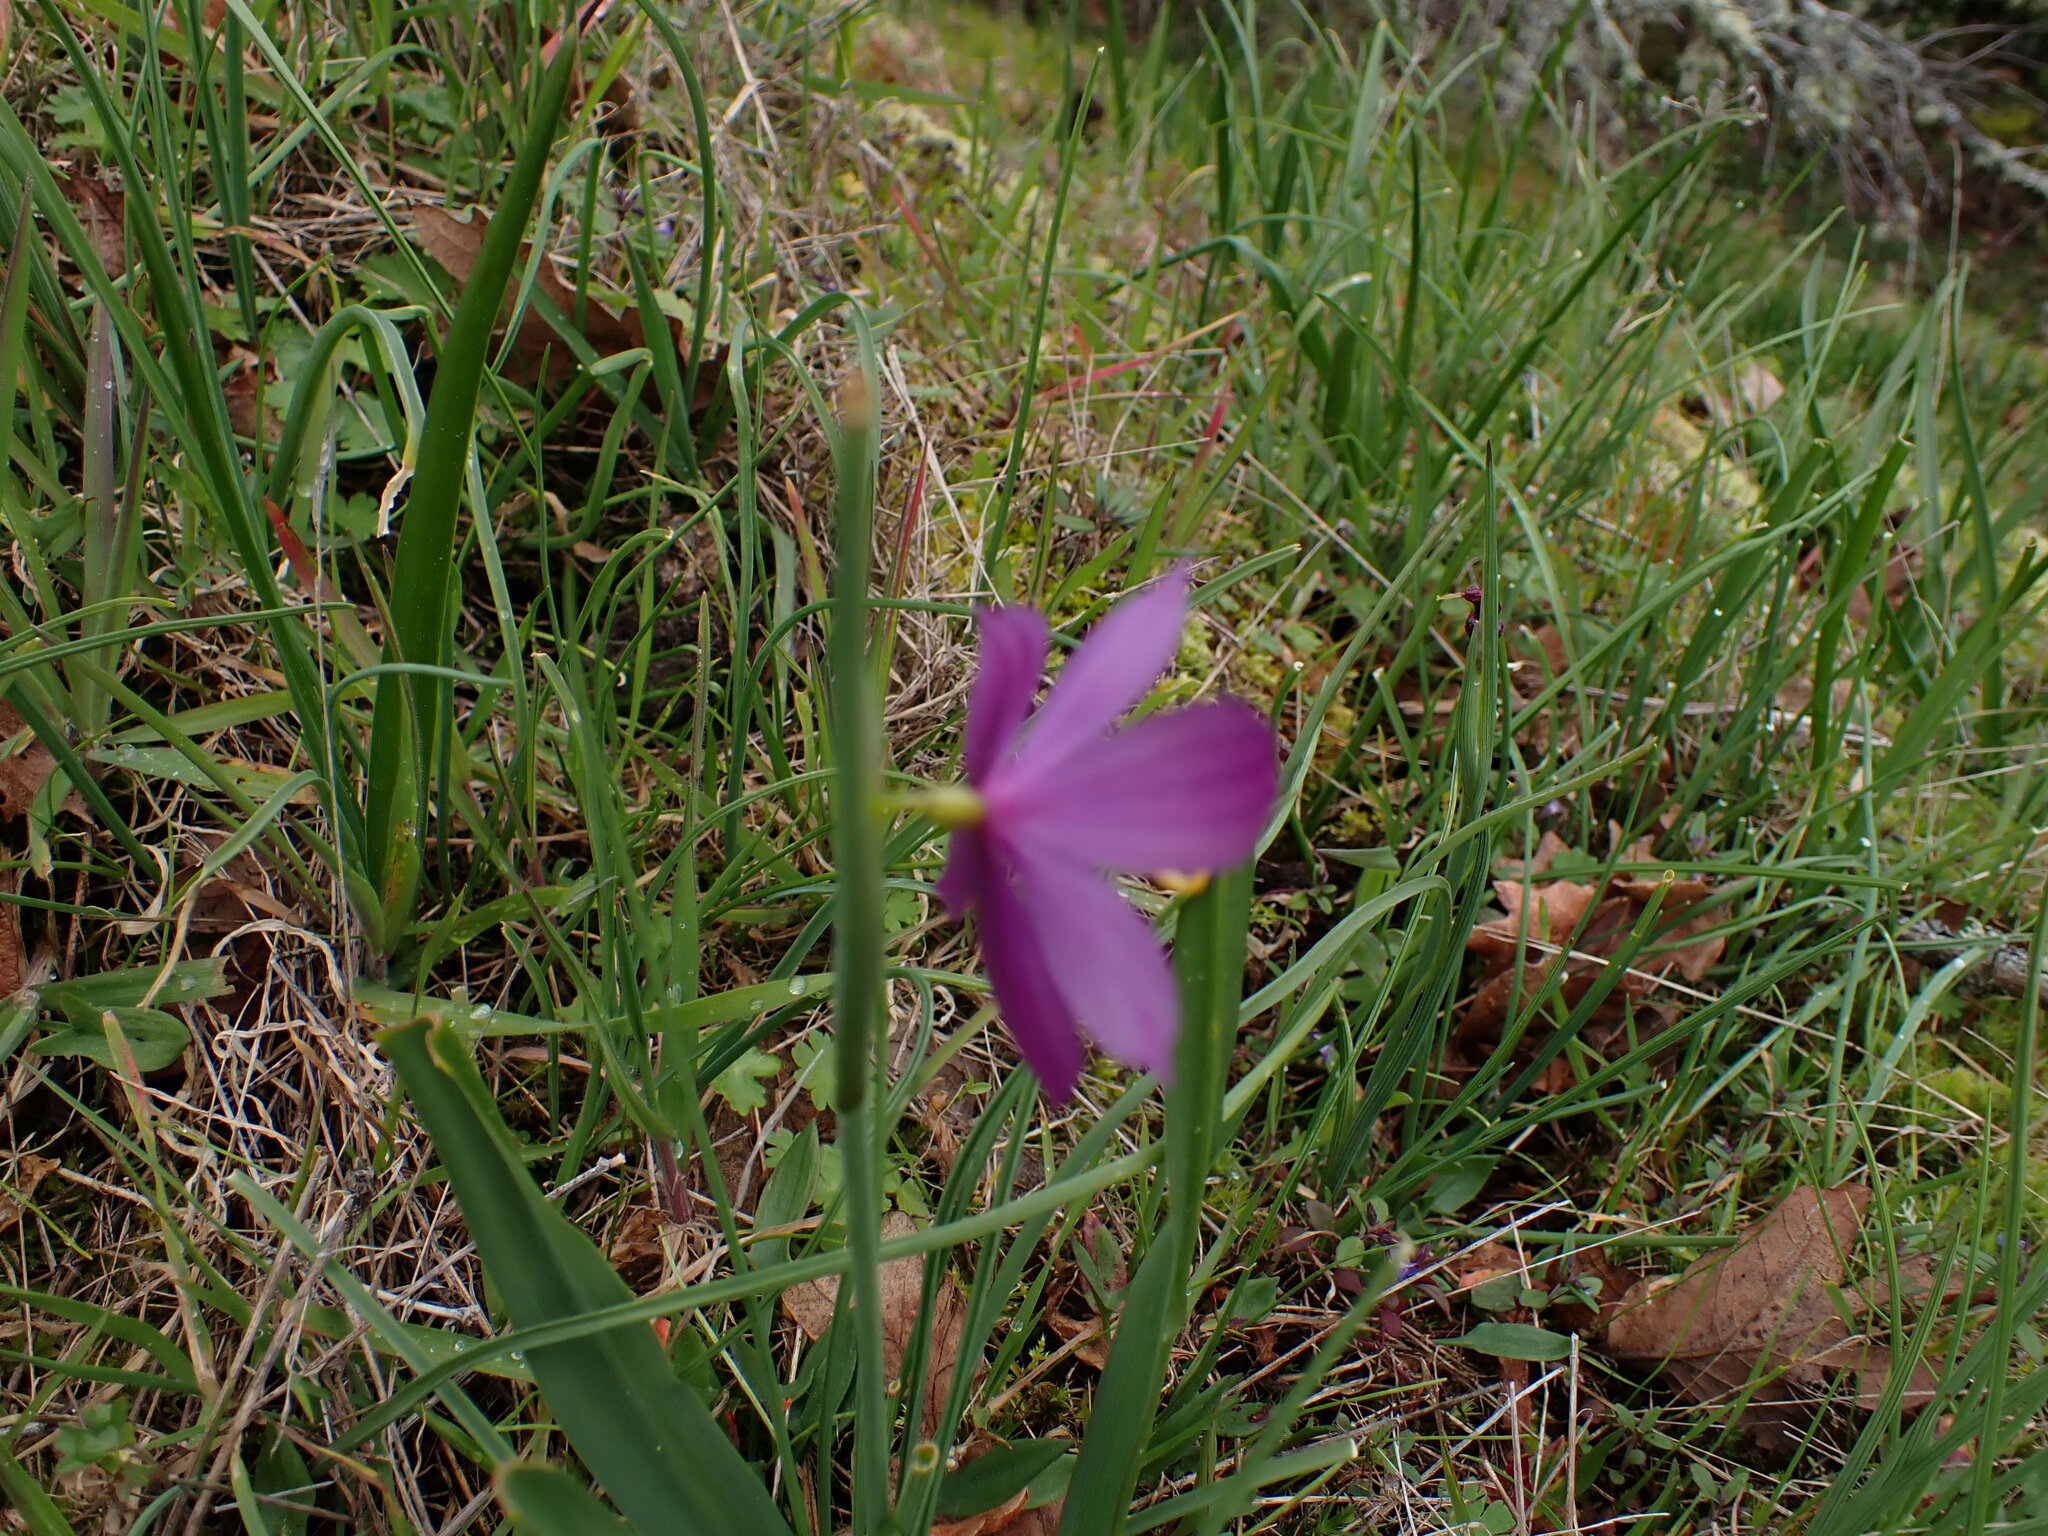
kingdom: Plantae
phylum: Tracheophyta
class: Liliopsida
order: Asparagales
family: Iridaceae
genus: Olsynium
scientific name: Olsynium douglasii
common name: Douglas' grasswidow
